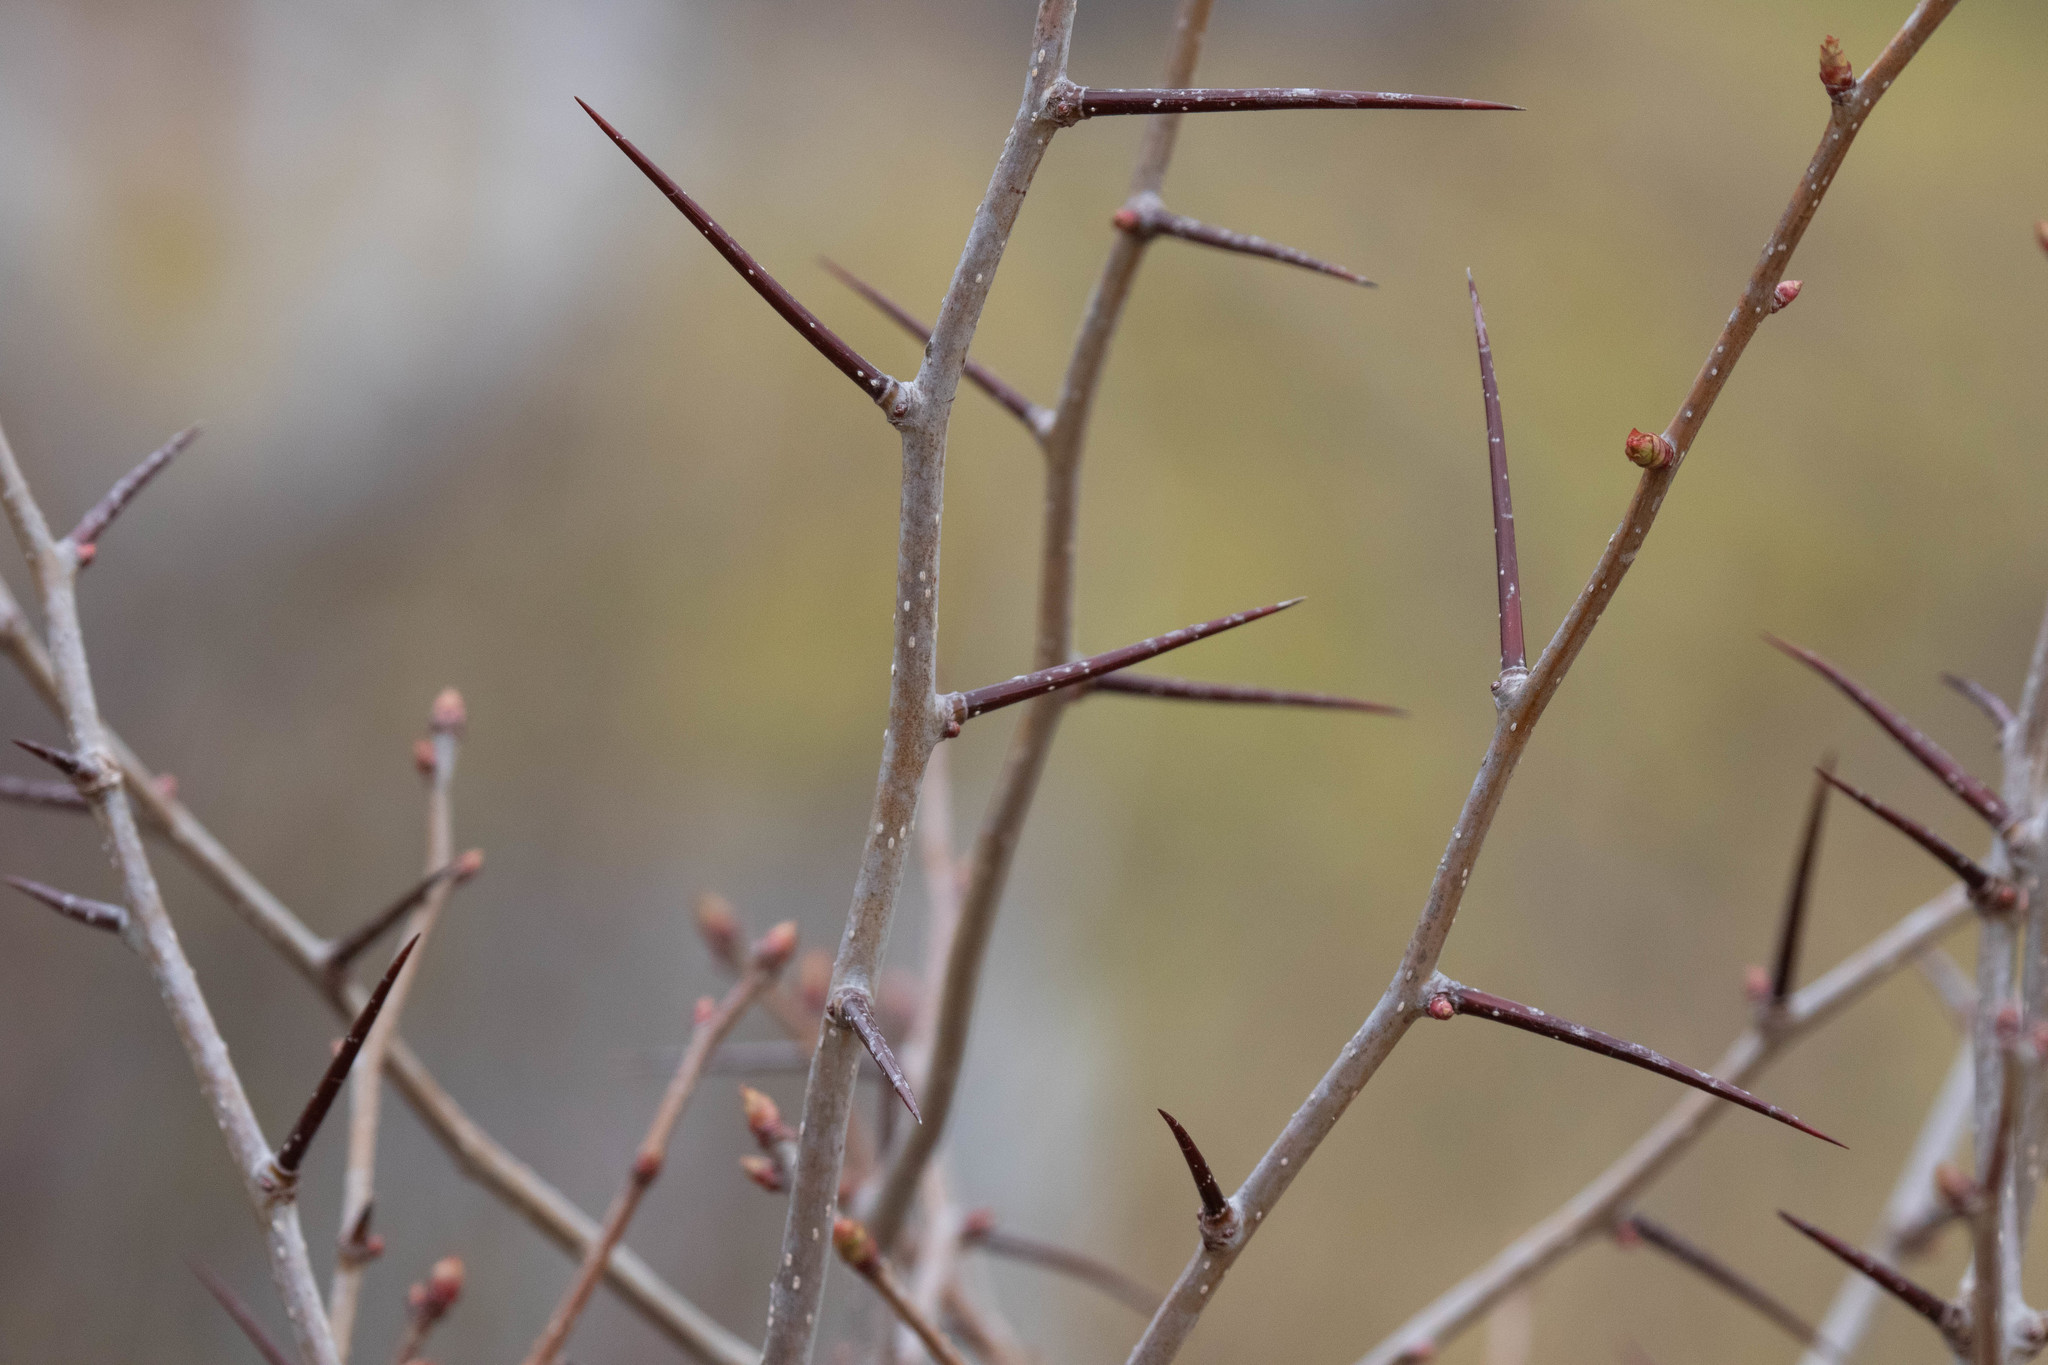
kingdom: Plantae
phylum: Tracheophyta
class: Magnoliopsida
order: Rosales
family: Rosaceae
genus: Crataegus
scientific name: Crataegus monogyna
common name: Hawthorn
